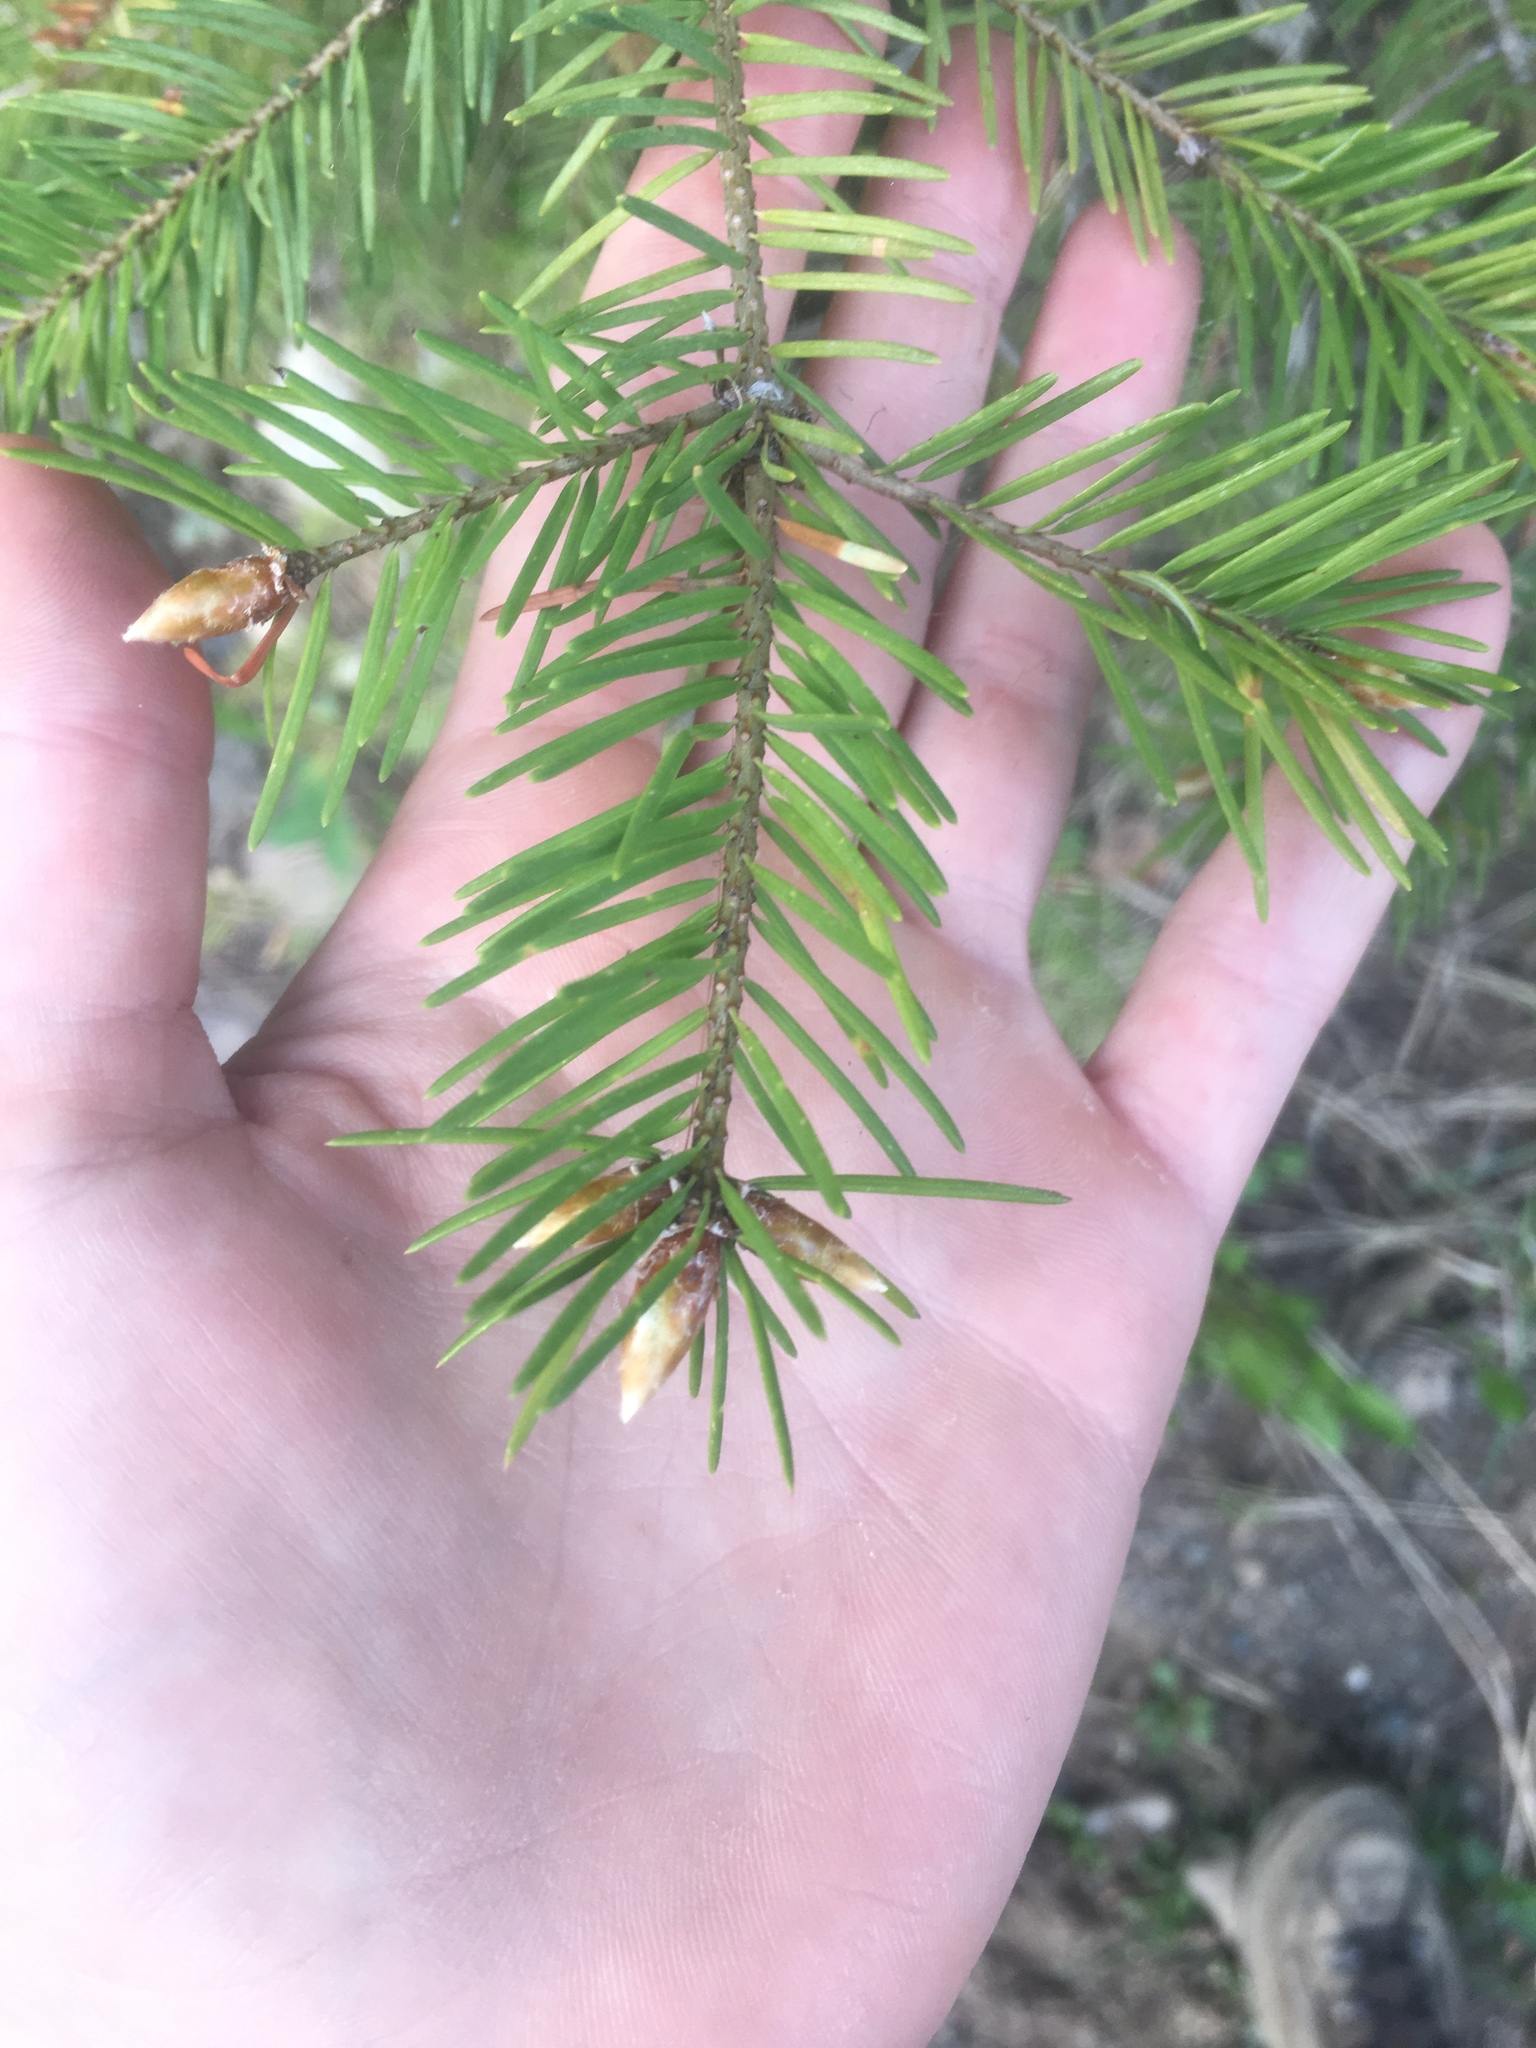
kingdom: Plantae
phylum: Tracheophyta
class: Pinopsida
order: Pinales
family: Pinaceae
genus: Pseudotsuga
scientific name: Pseudotsuga menziesii
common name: Douglas fir
